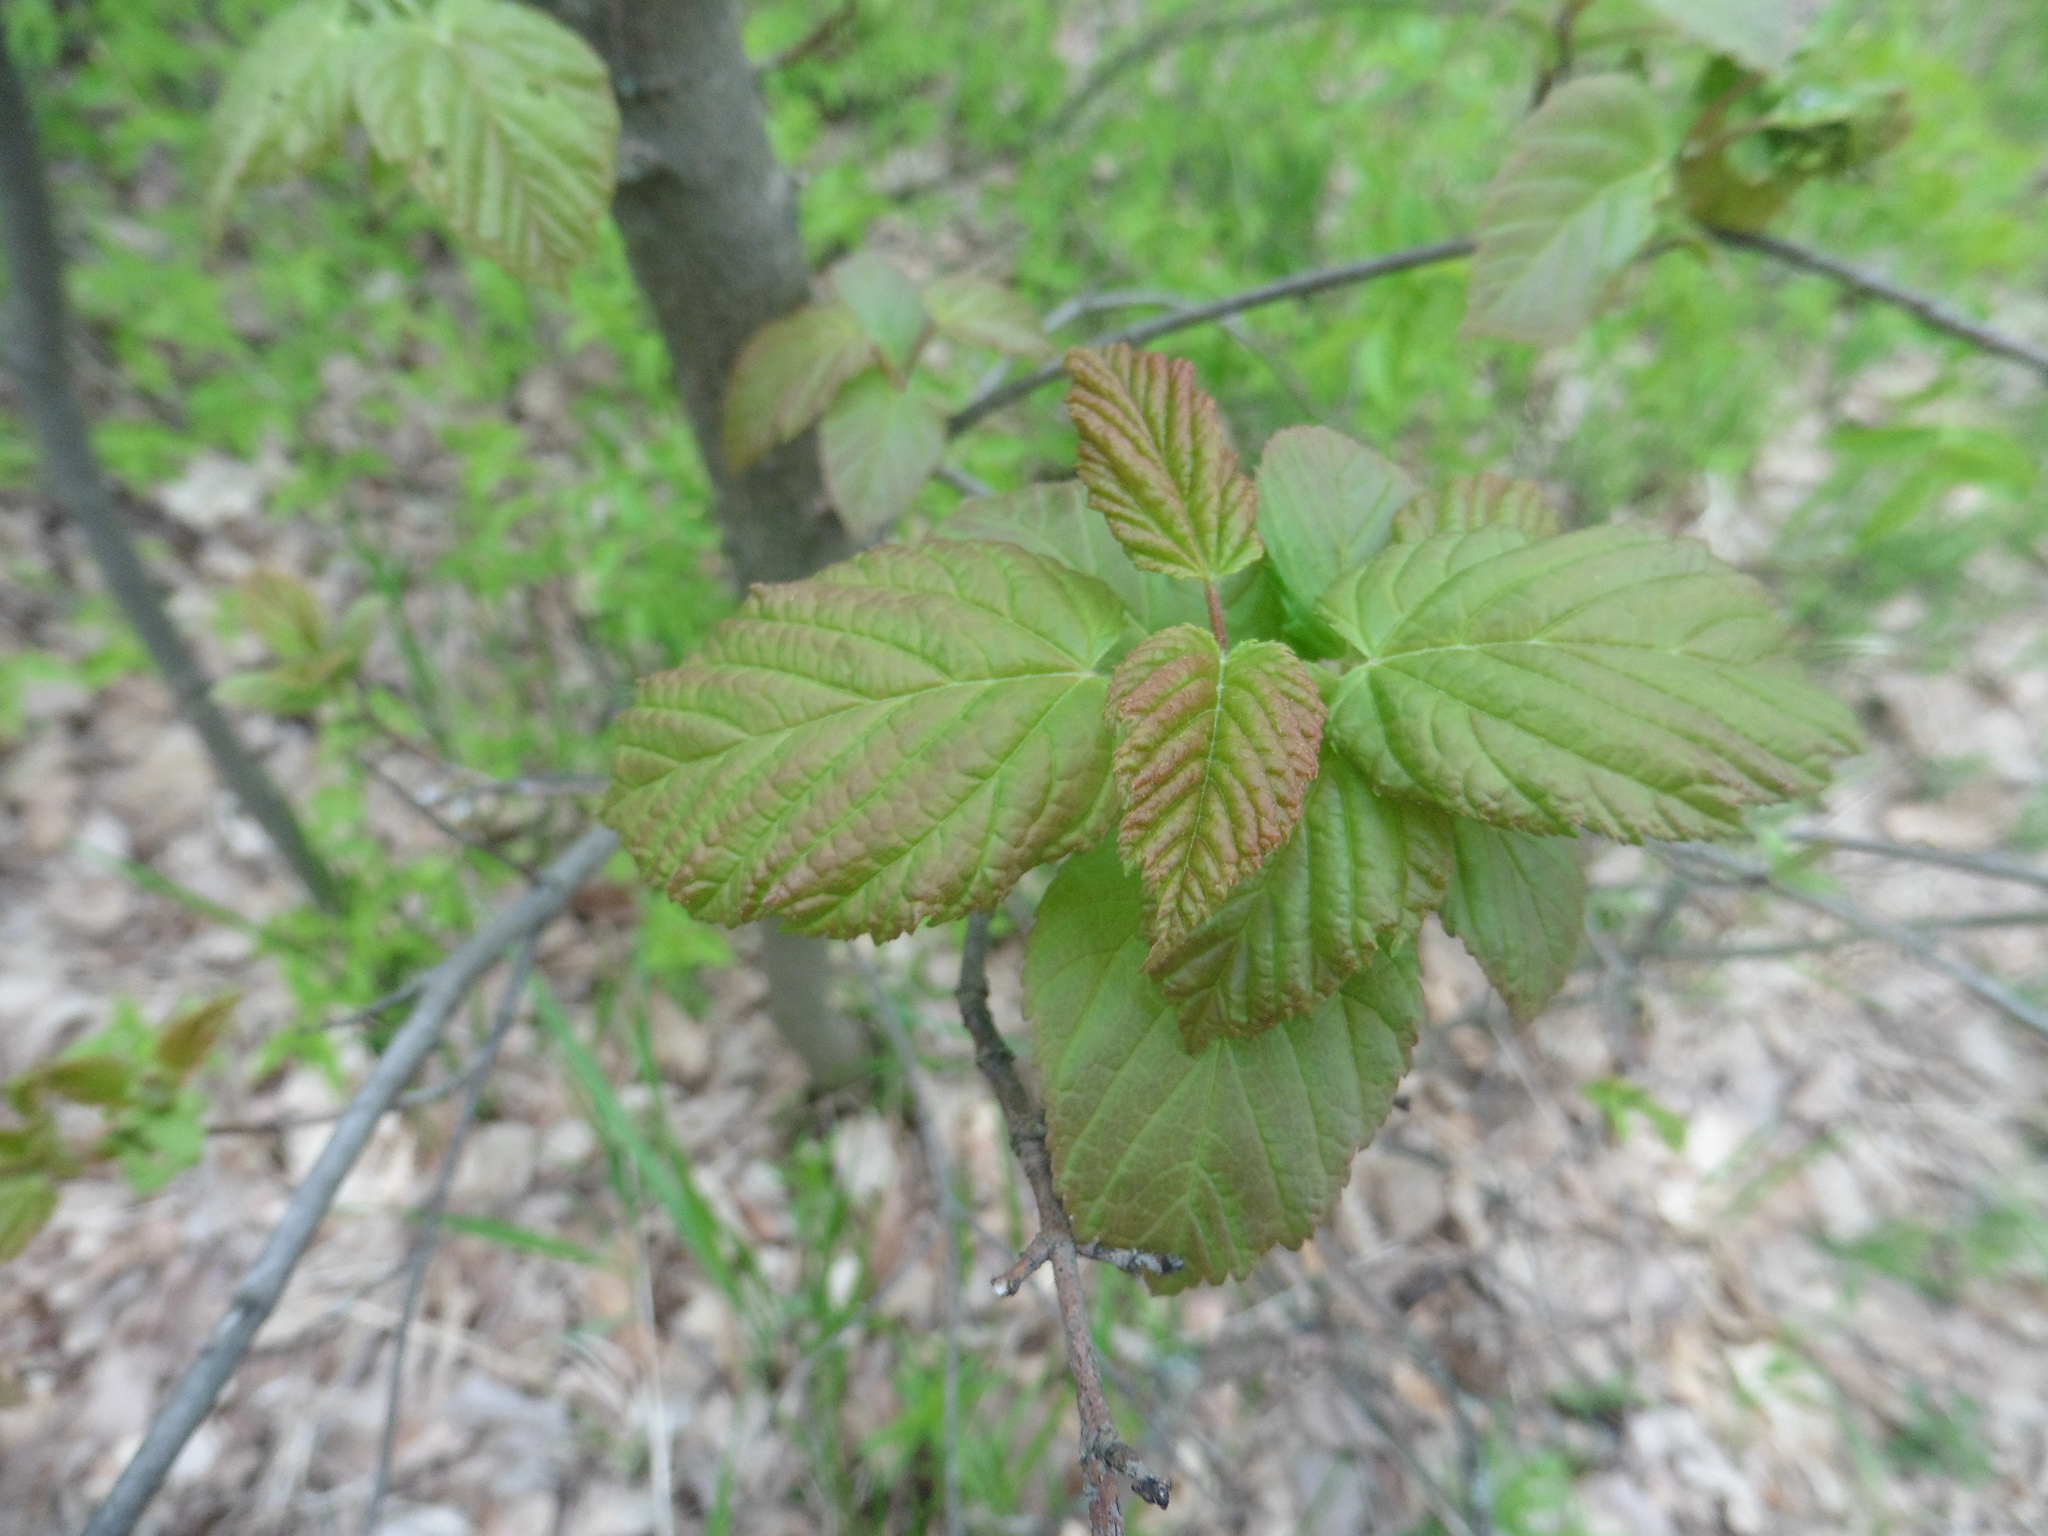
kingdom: Plantae
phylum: Tracheophyta
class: Magnoliopsida
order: Sapindales
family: Sapindaceae
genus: Acer
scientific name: Acer tataricum
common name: Tartar maple
